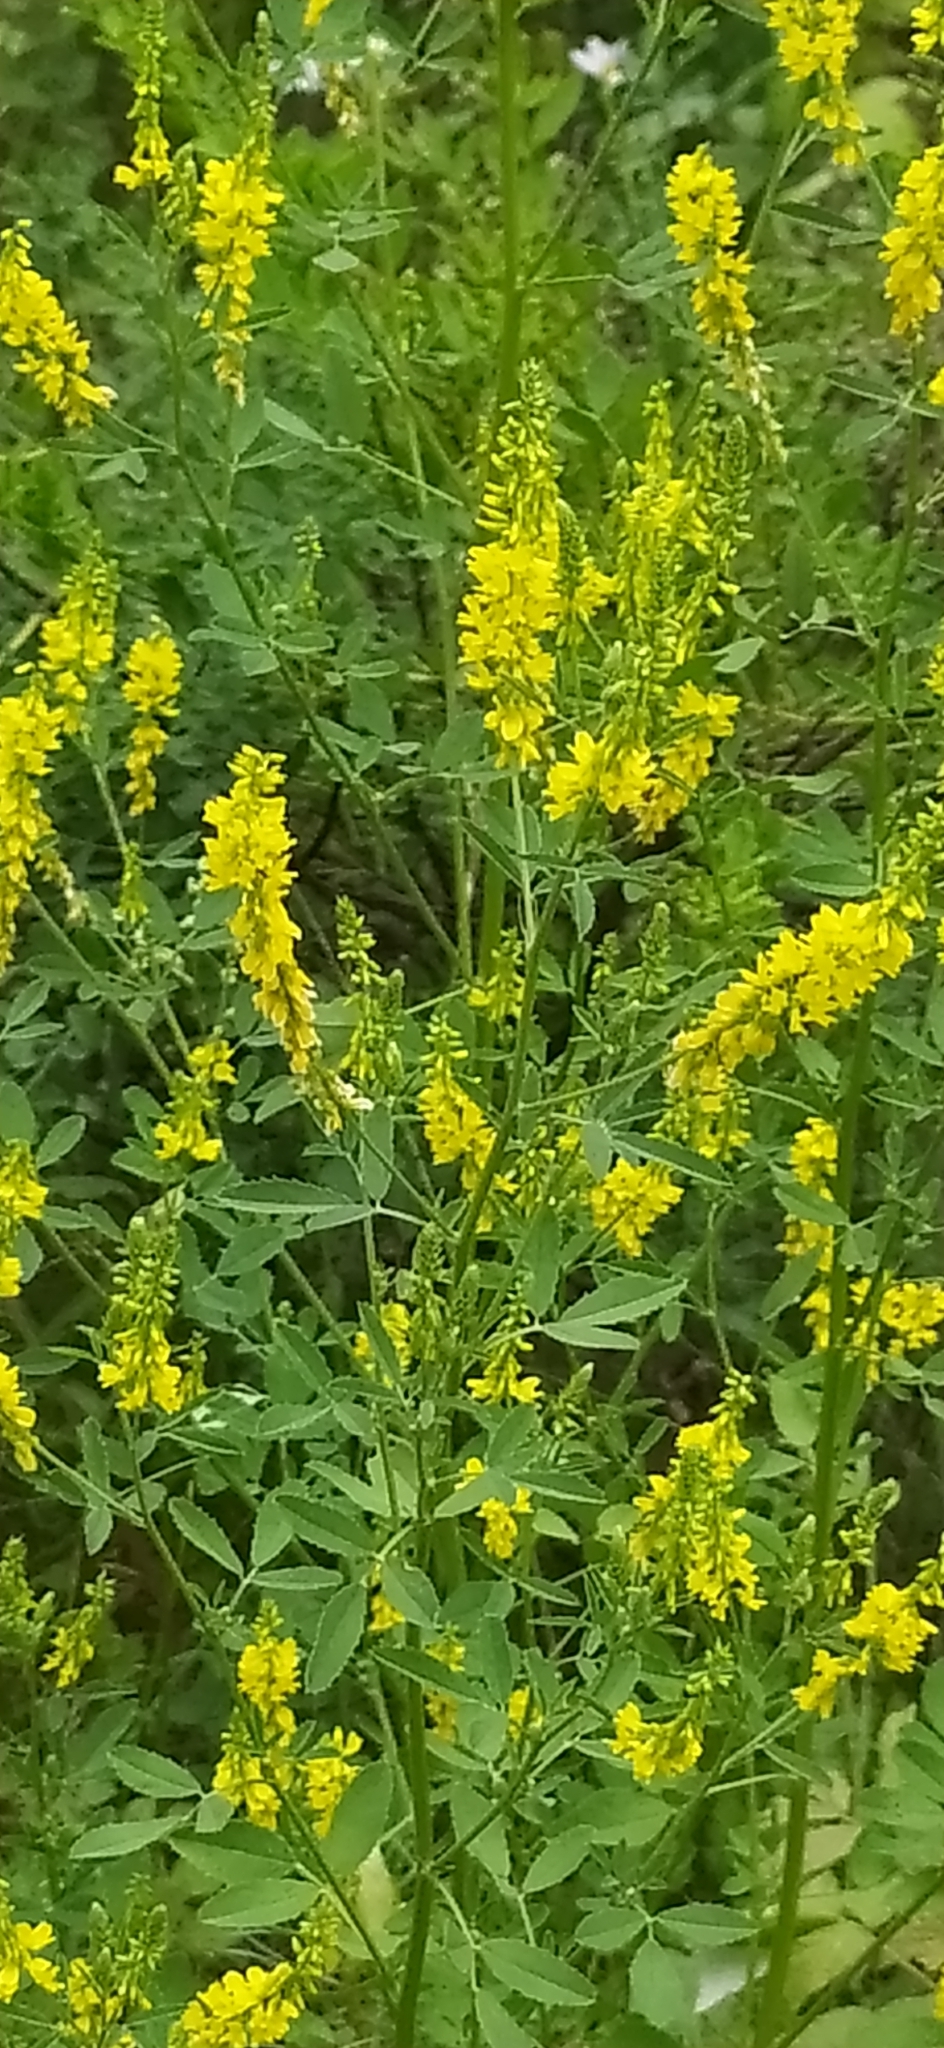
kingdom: Plantae
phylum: Tracheophyta
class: Magnoliopsida
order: Fabales
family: Fabaceae
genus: Melilotus
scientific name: Melilotus officinalis
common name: Sweetclover
